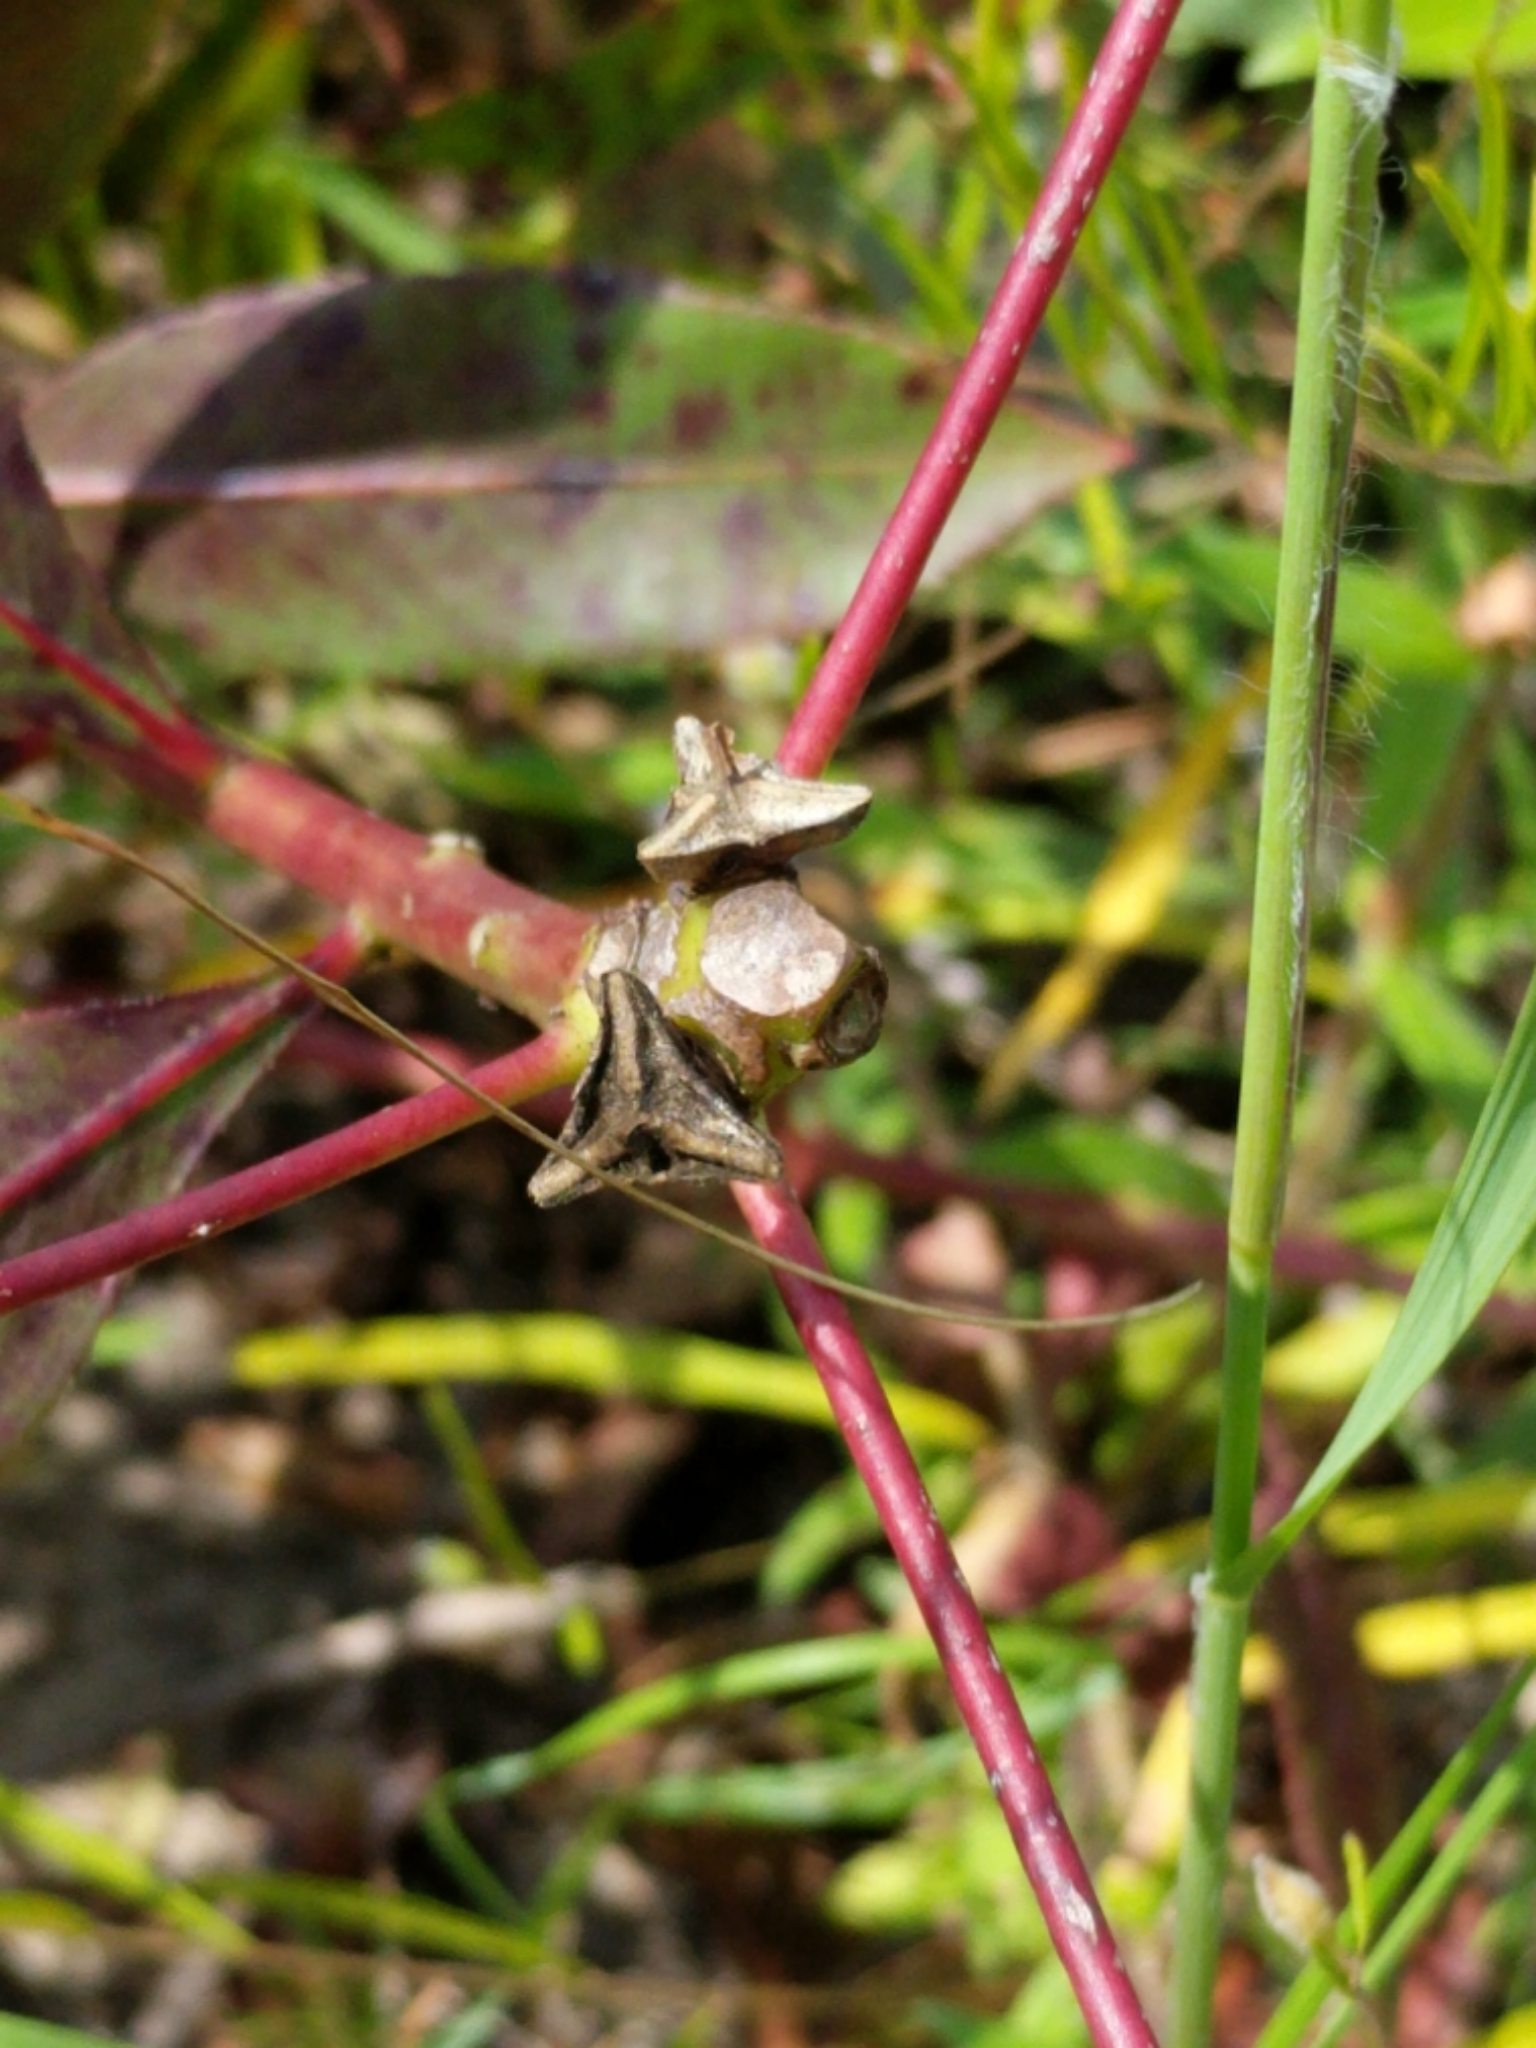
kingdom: Plantae
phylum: Tracheophyta
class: Magnoliopsida
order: Malpighiales
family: Euphorbiaceae
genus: Stillingia
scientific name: Stillingia sylvatica
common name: Queen's-delight
